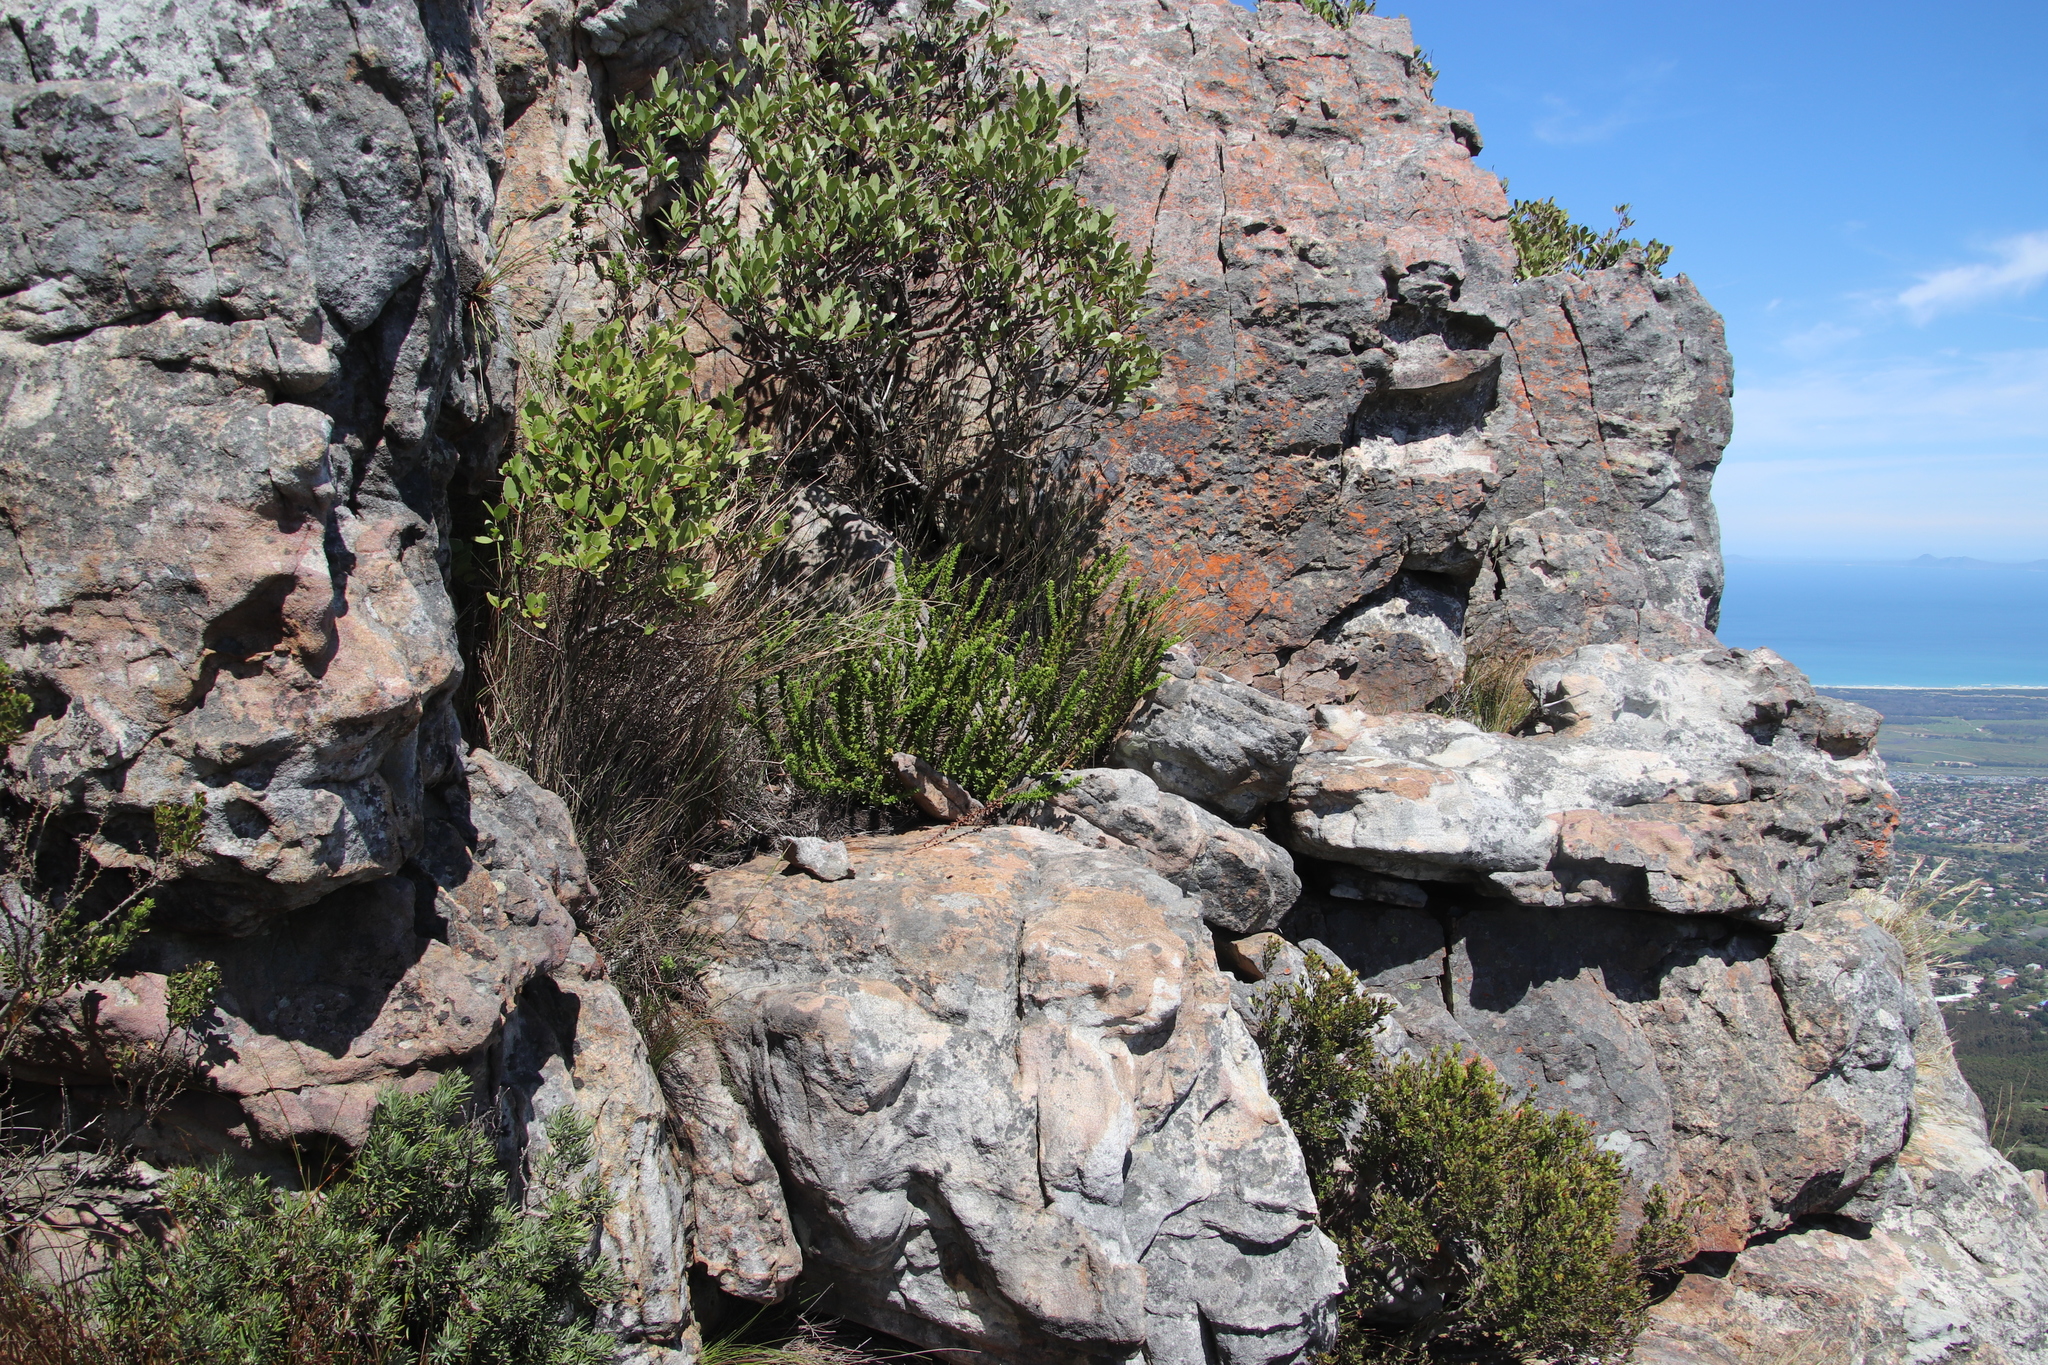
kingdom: Plantae
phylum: Tracheophyta
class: Magnoliopsida
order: Lamiales
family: Scrophulariaceae
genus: Pseudoselago
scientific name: Pseudoselago serrata
